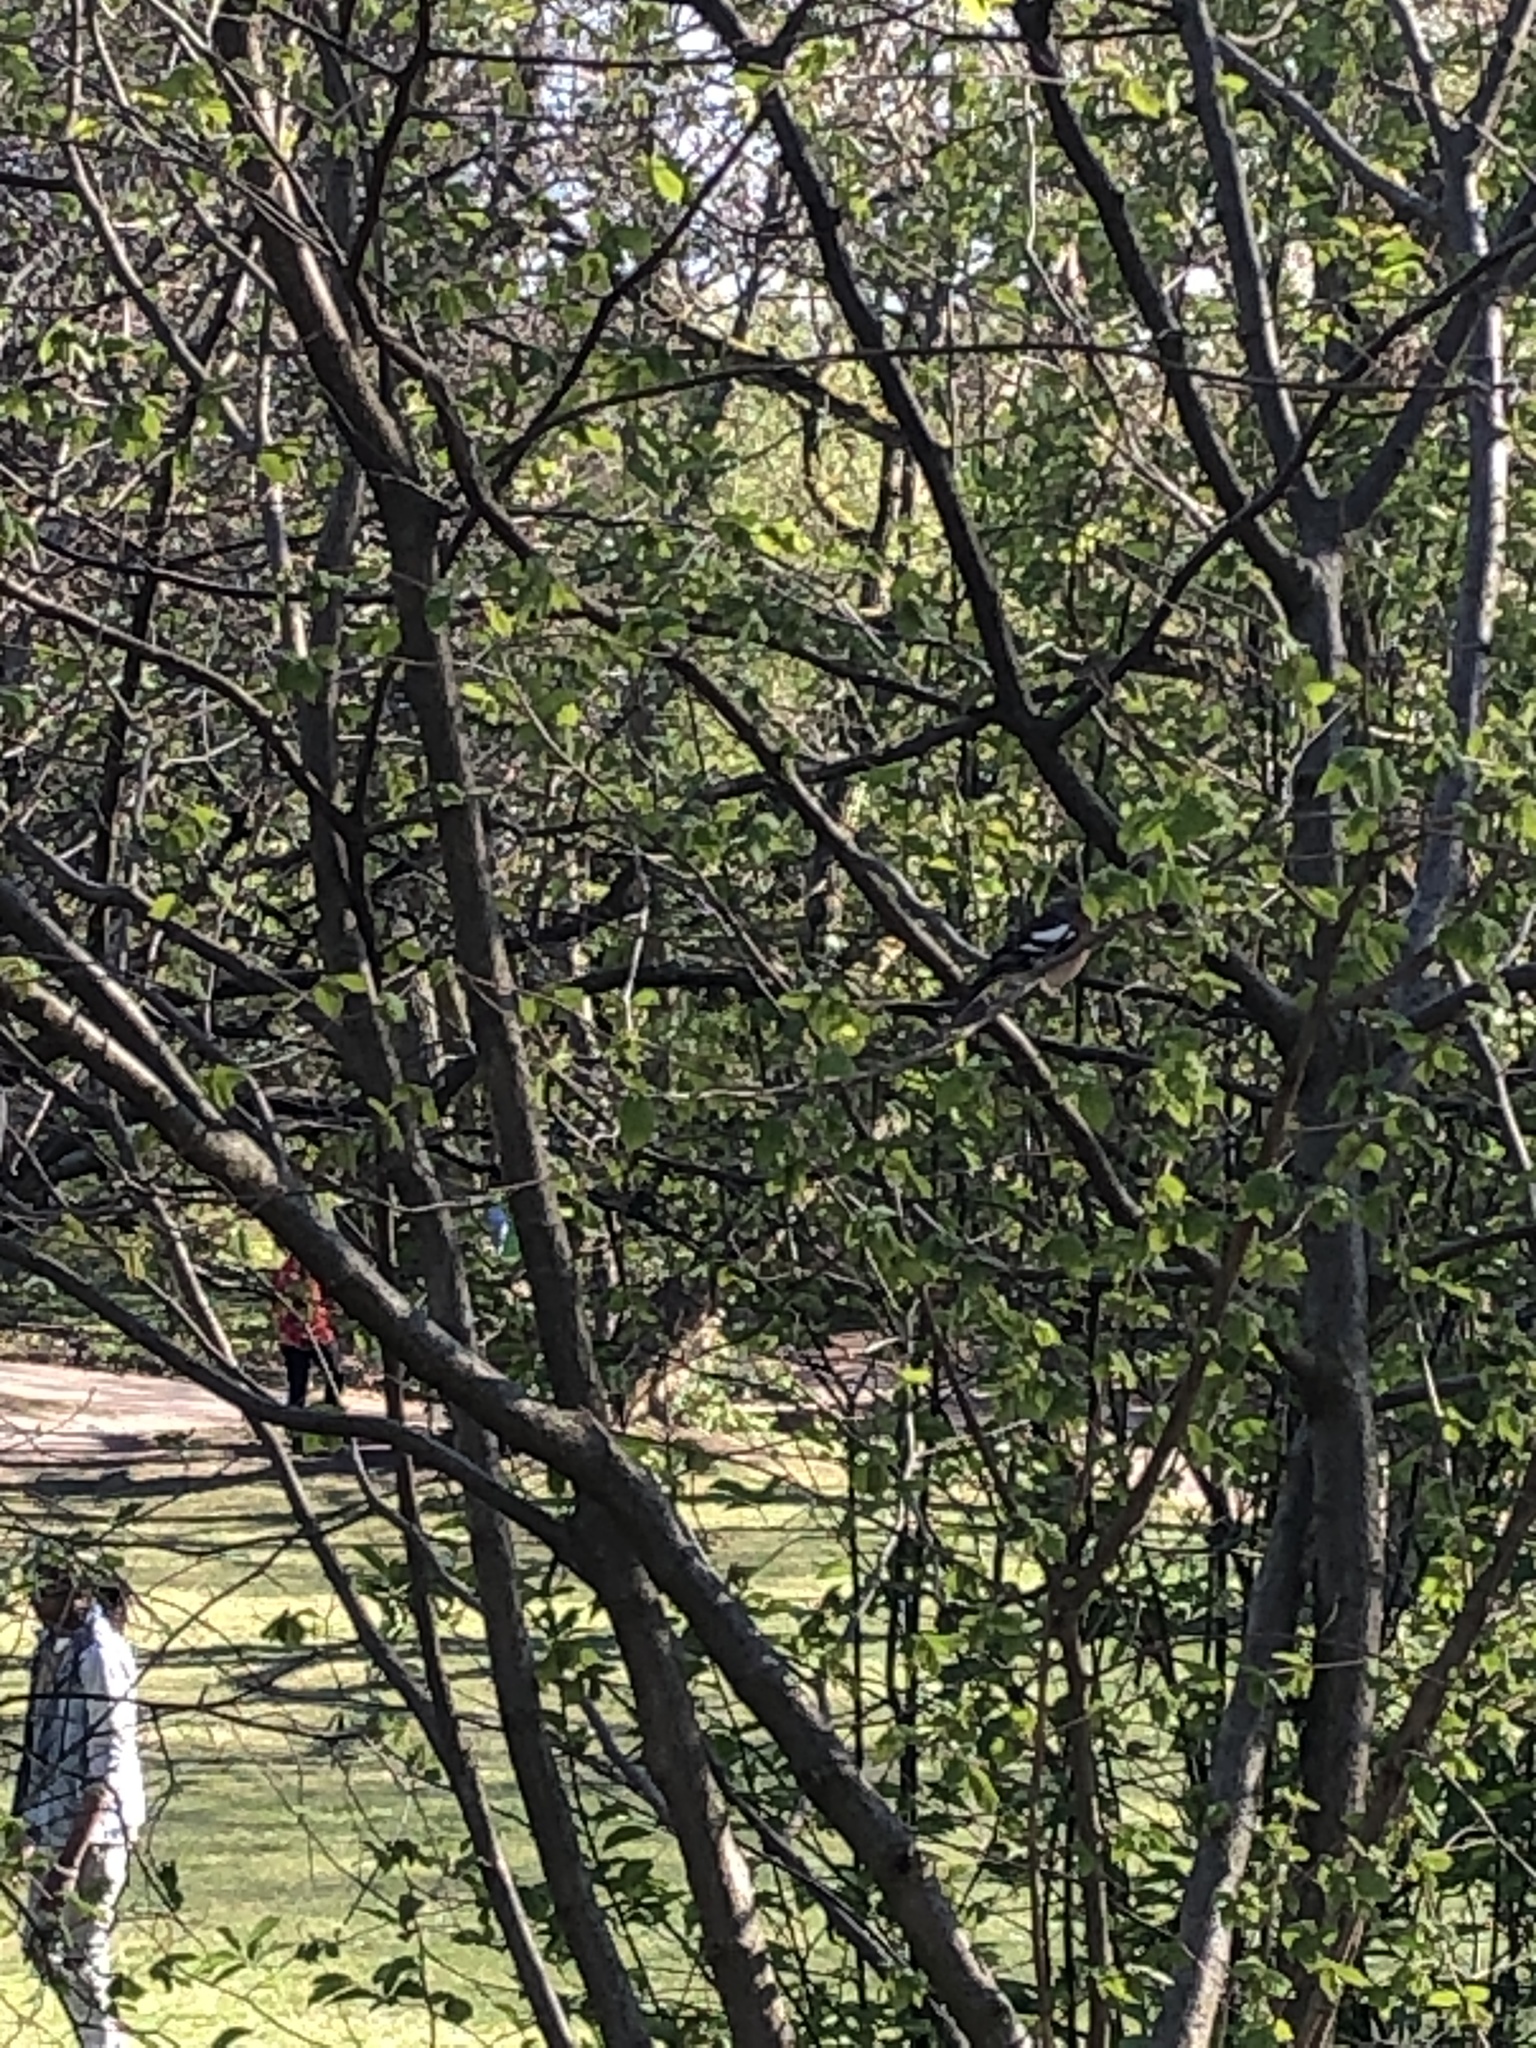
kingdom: Animalia
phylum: Chordata
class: Aves
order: Passeriformes
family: Fringillidae
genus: Fringilla
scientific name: Fringilla coelebs
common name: Common chaffinch
